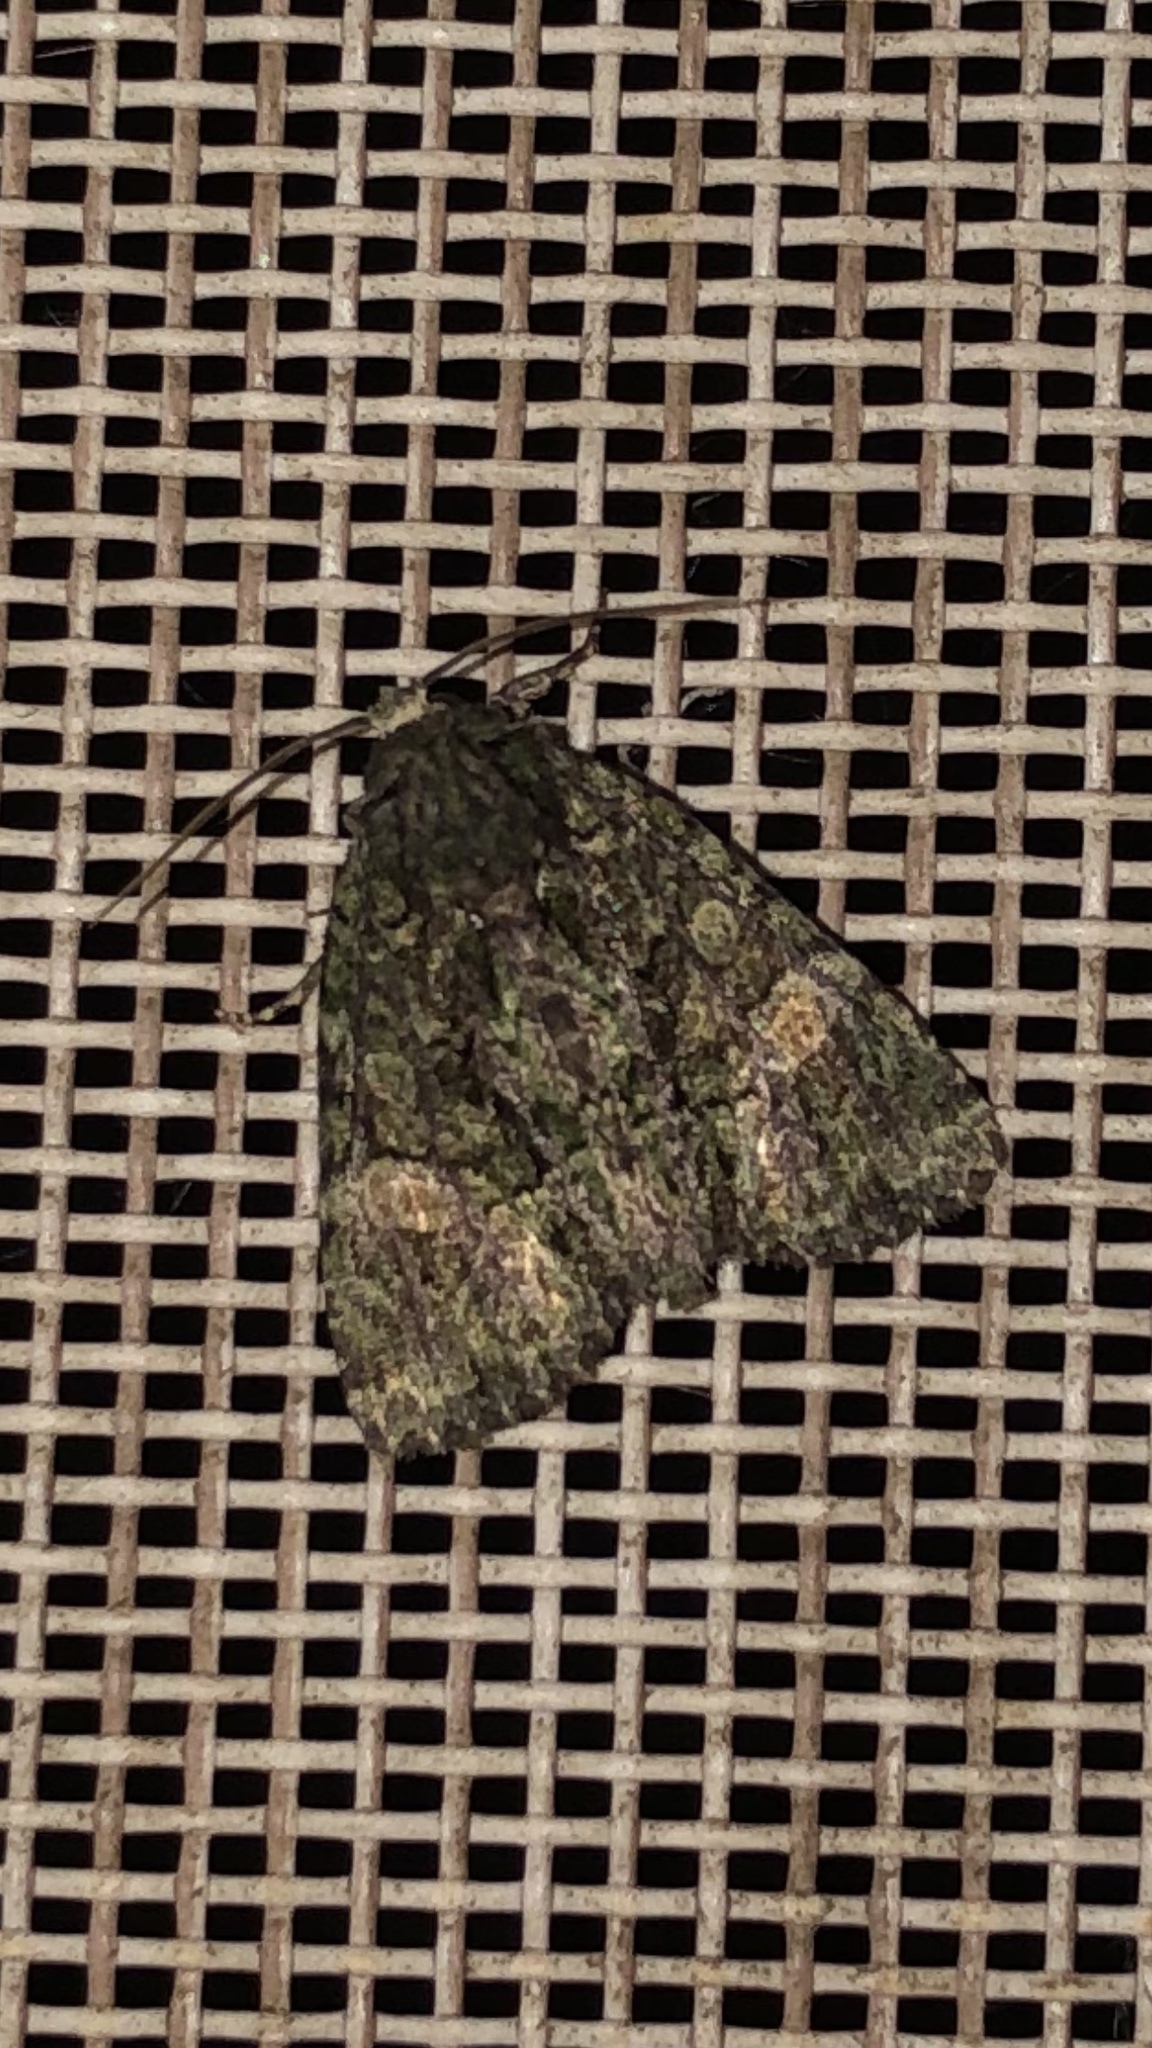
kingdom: Animalia
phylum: Arthropoda
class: Insecta
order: Lepidoptera
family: Noctuidae
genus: Phosphila
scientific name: Phosphila miselioides
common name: Spotted phosphila moth
